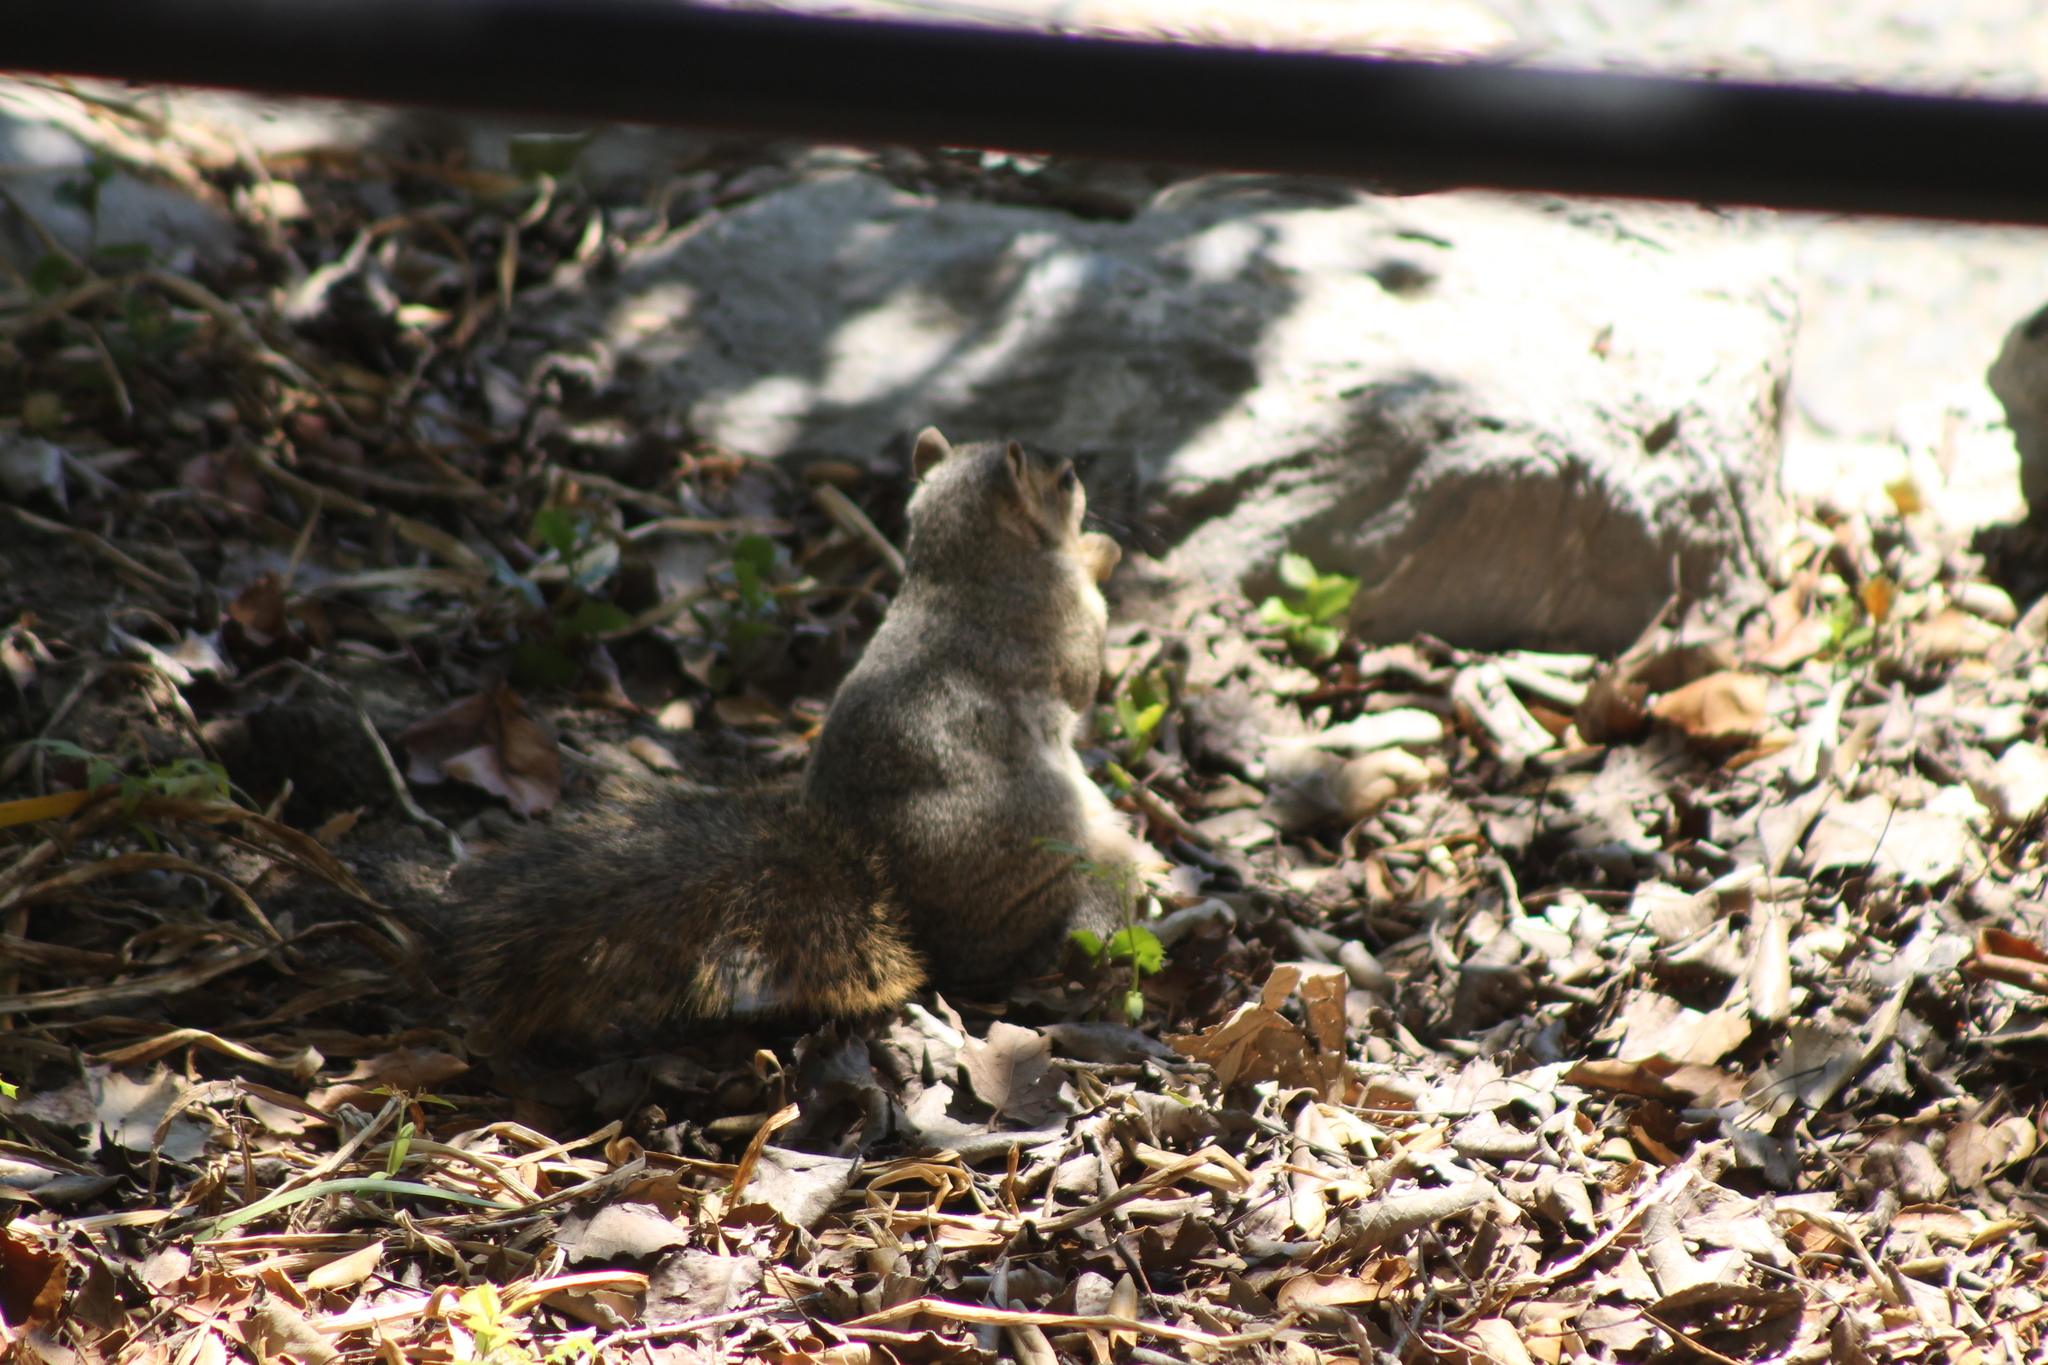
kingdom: Animalia
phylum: Chordata
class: Mammalia
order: Rodentia
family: Sciuridae
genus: Sciurus
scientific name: Sciurus niger
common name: Fox squirrel
